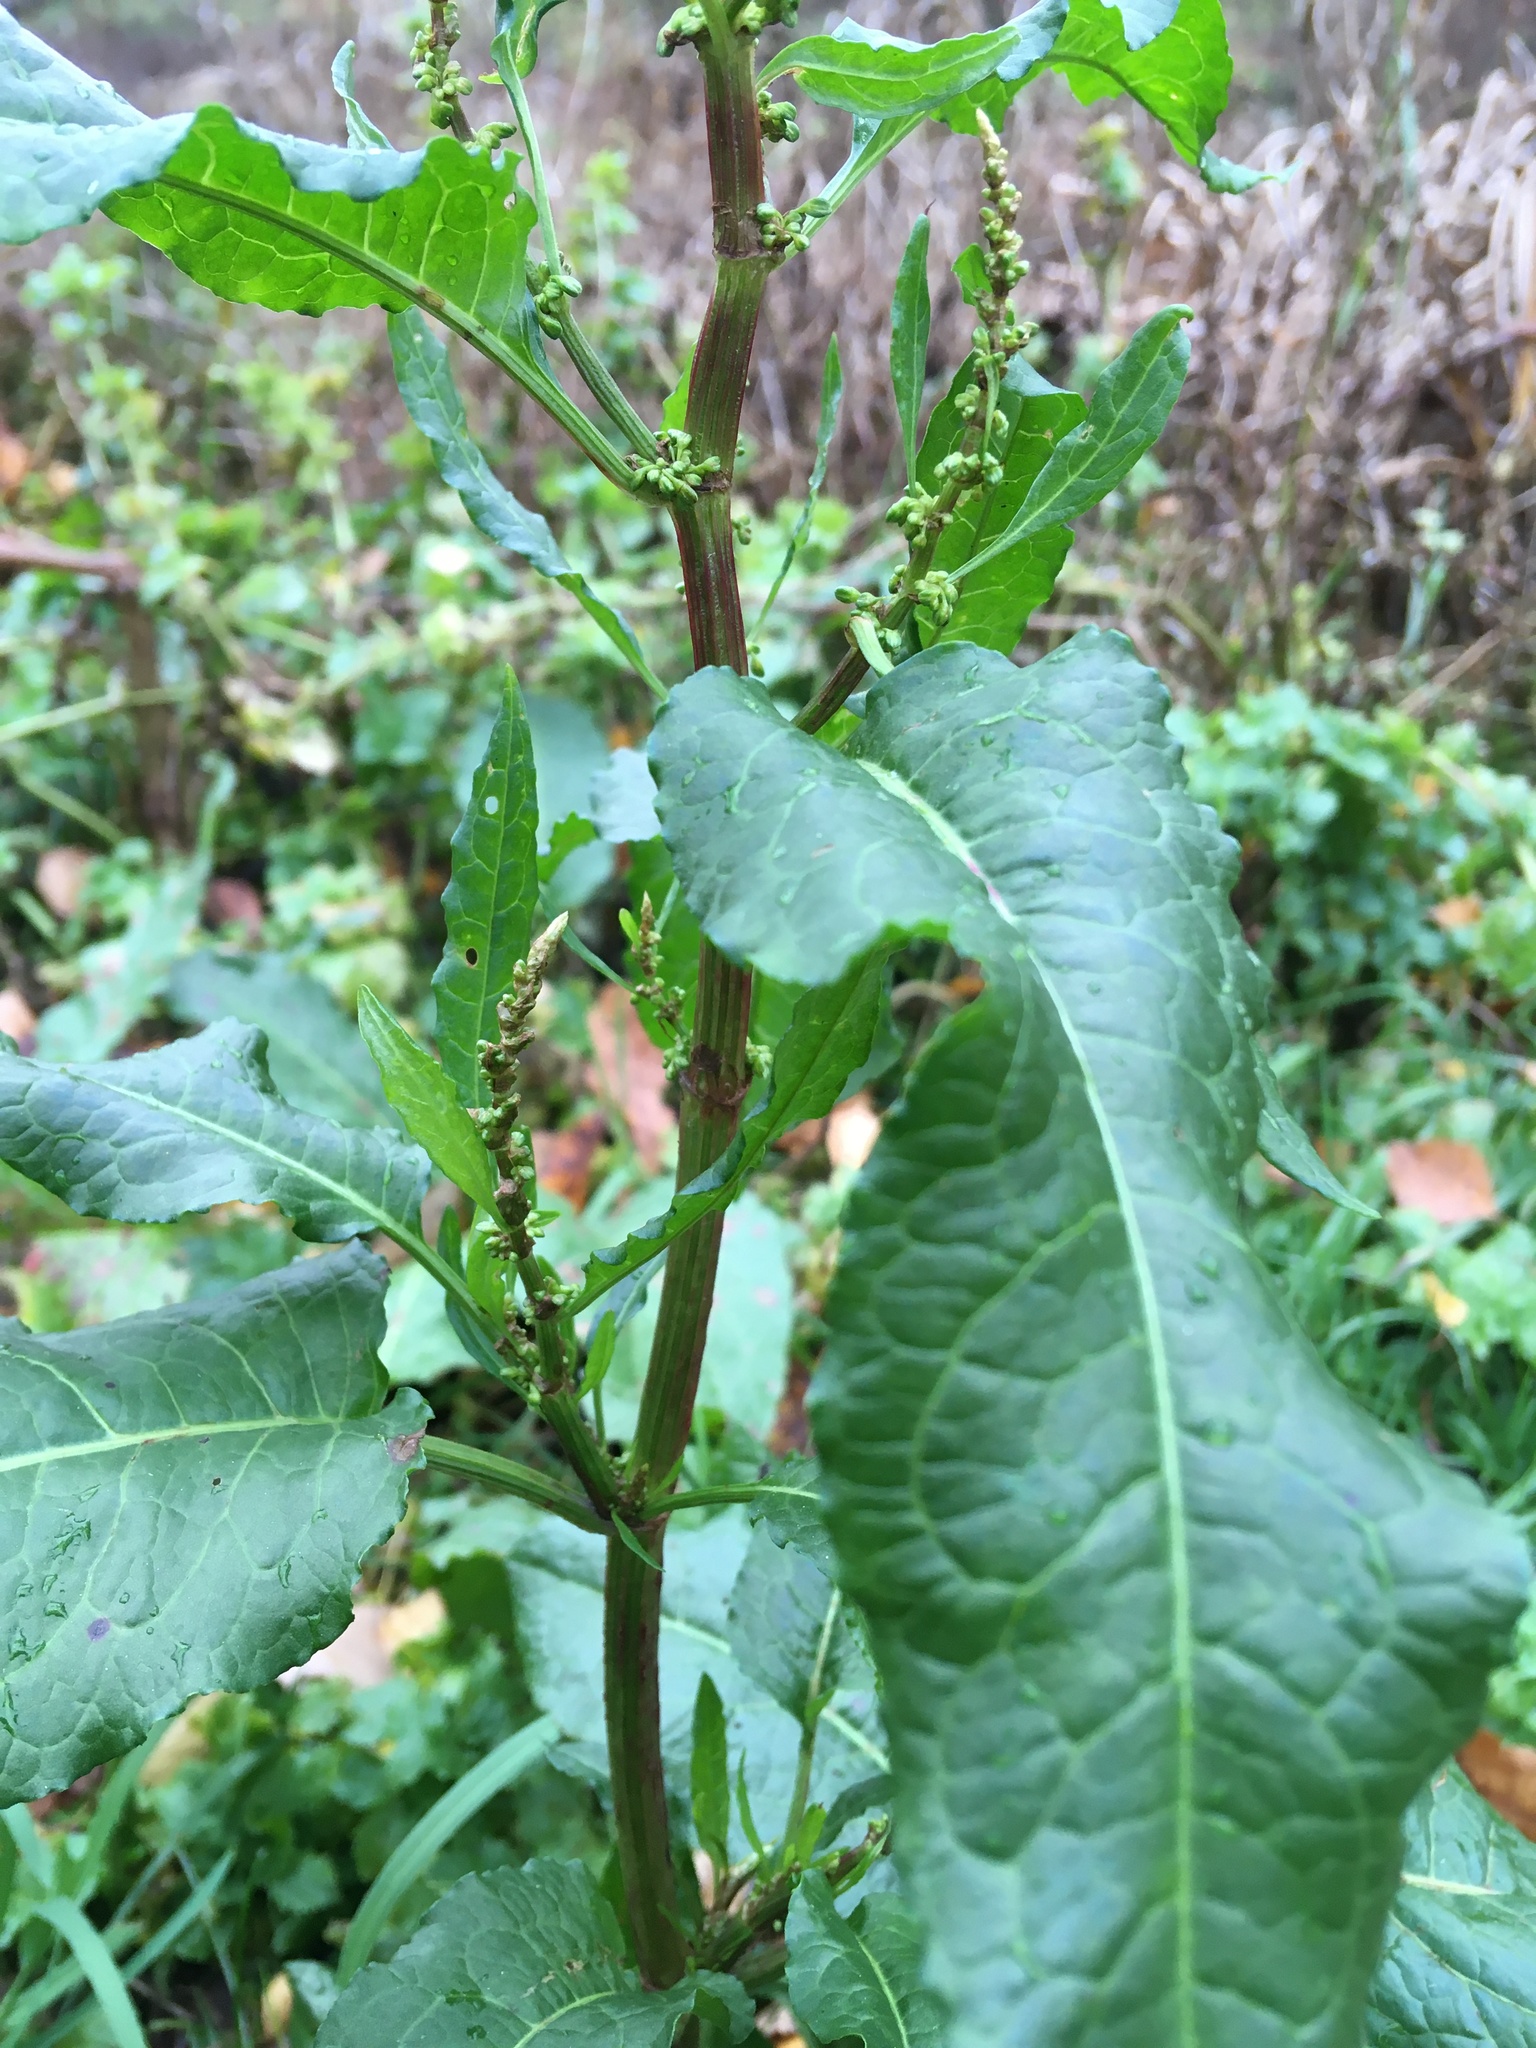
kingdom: Plantae
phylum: Tracheophyta
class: Magnoliopsida
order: Caryophyllales
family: Polygonaceae
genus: Rumex
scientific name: Rumex obtusifolius
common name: Bitter dock
